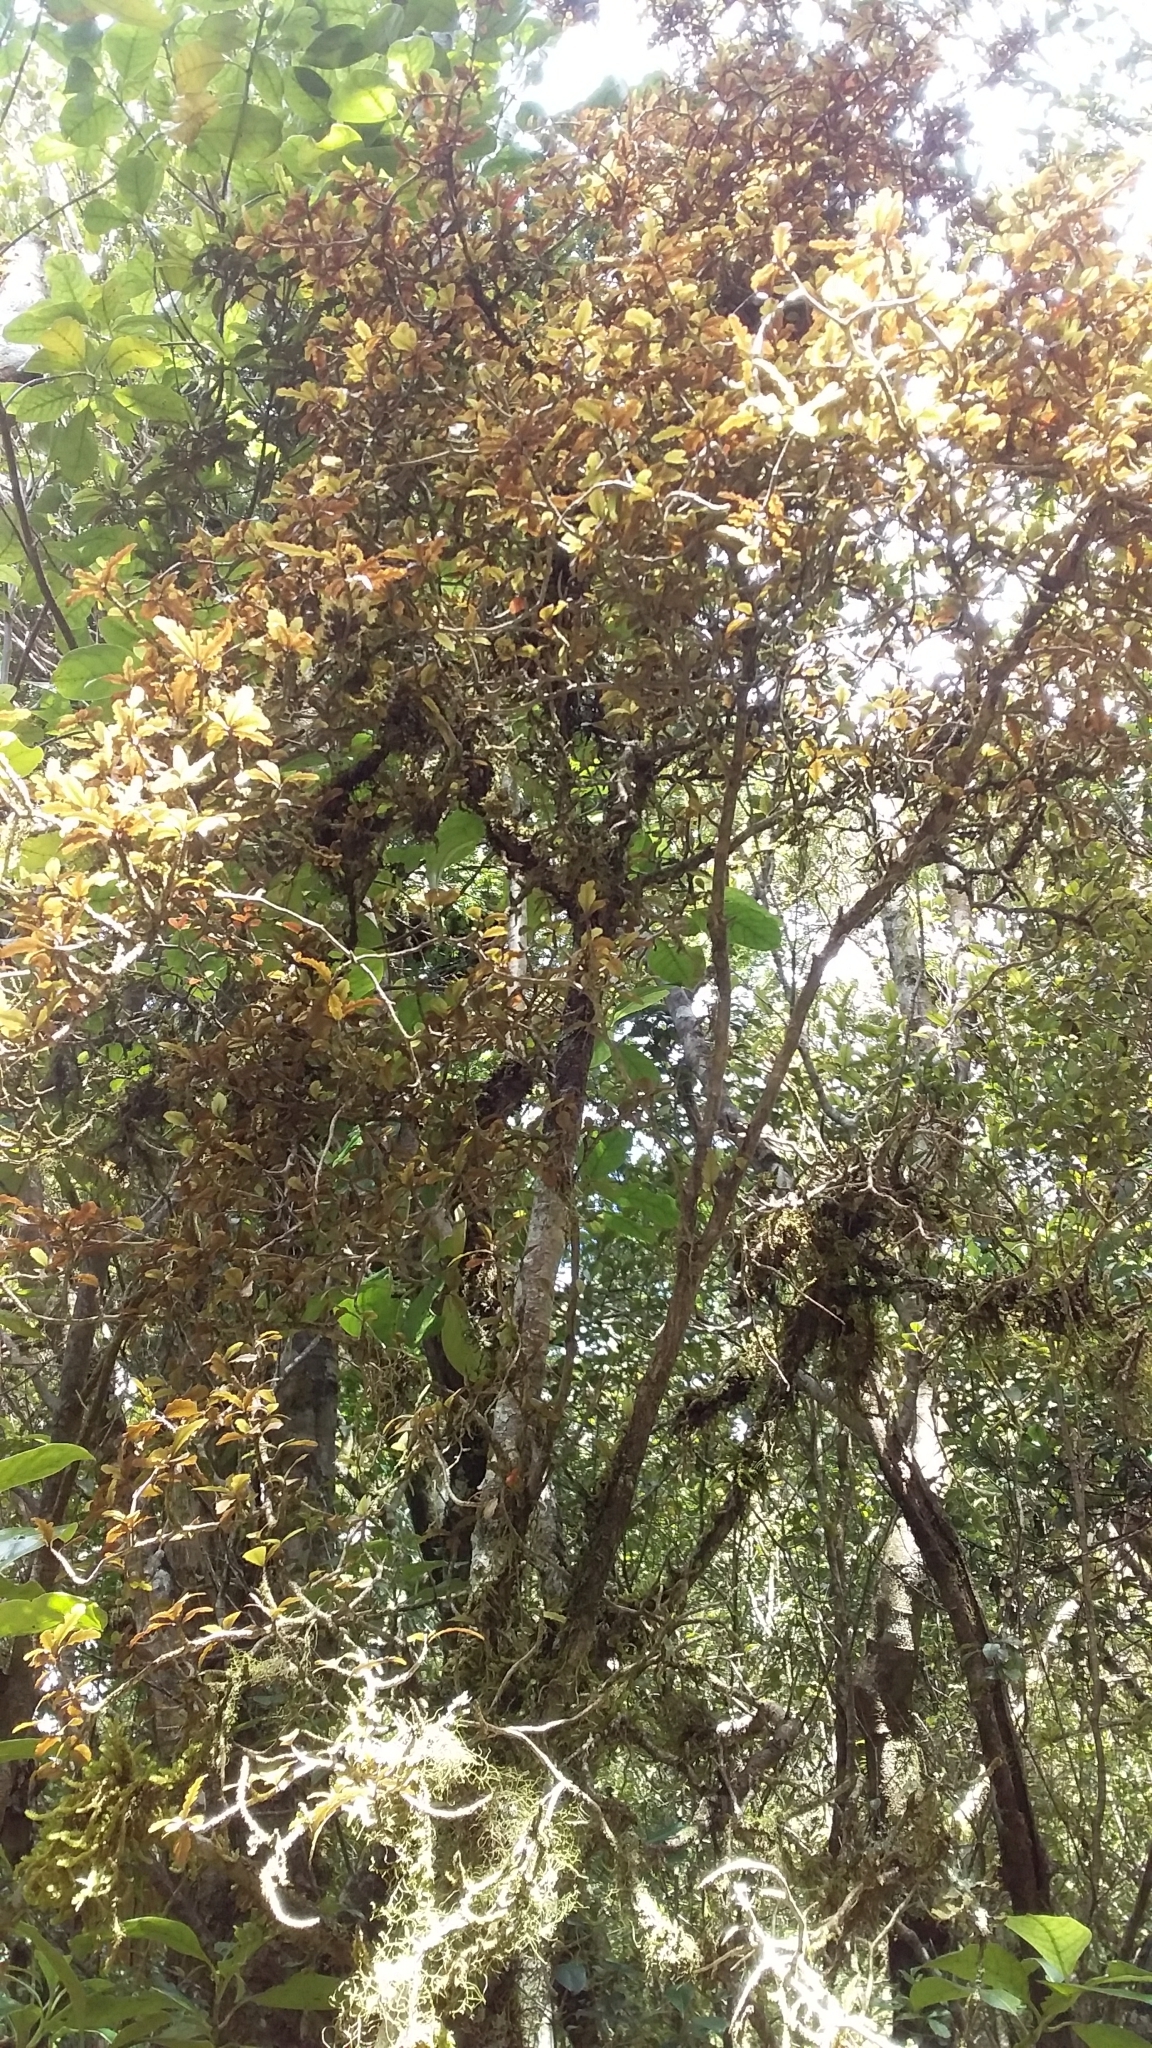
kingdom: Plantae
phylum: Tracheophyta
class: Magnoliopsida
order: Oxalidales
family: Elaeocarpaceae
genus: Elaeocarpus
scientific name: Elaeocarpus hookerianus
